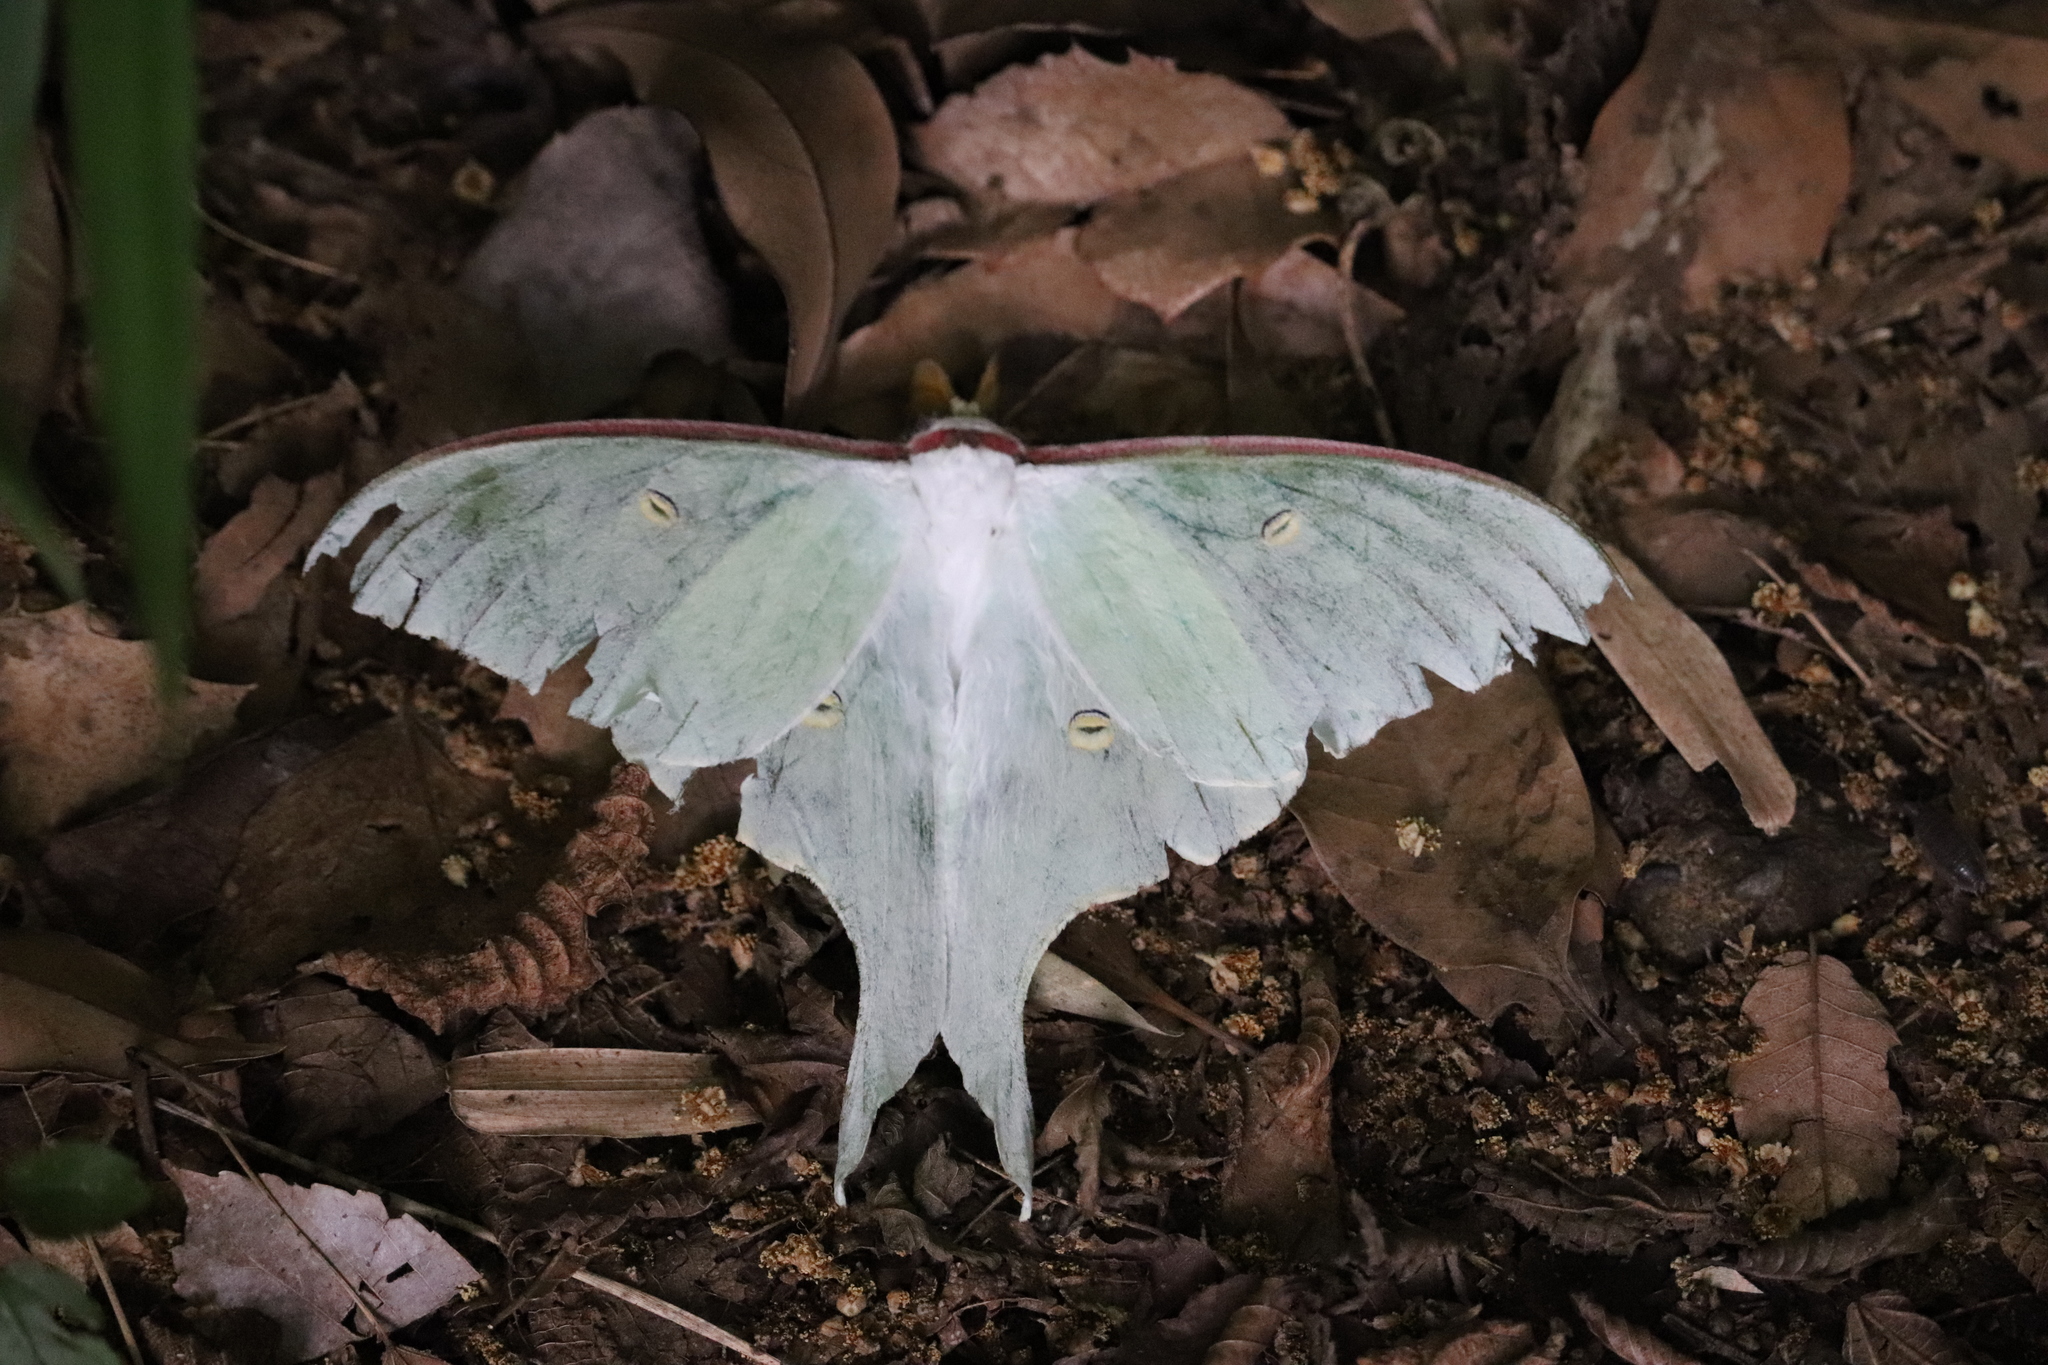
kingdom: Animalia
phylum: Arthropoda
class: Insecta
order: Lepidoptera
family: Saturniidae
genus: Actias
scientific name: Actias aliena
